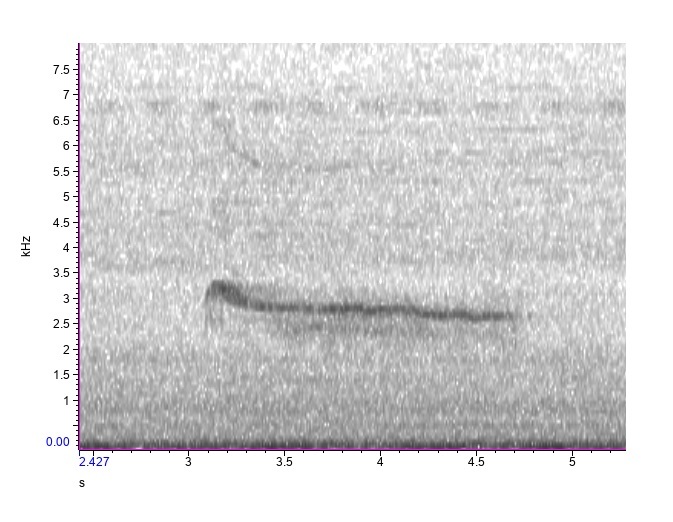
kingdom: Animalia
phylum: Chordata
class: Aves
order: Accipitriformes
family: Accipitridae
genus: Buteo
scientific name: Buteo jamaicensis
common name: Red-tailed hawk
